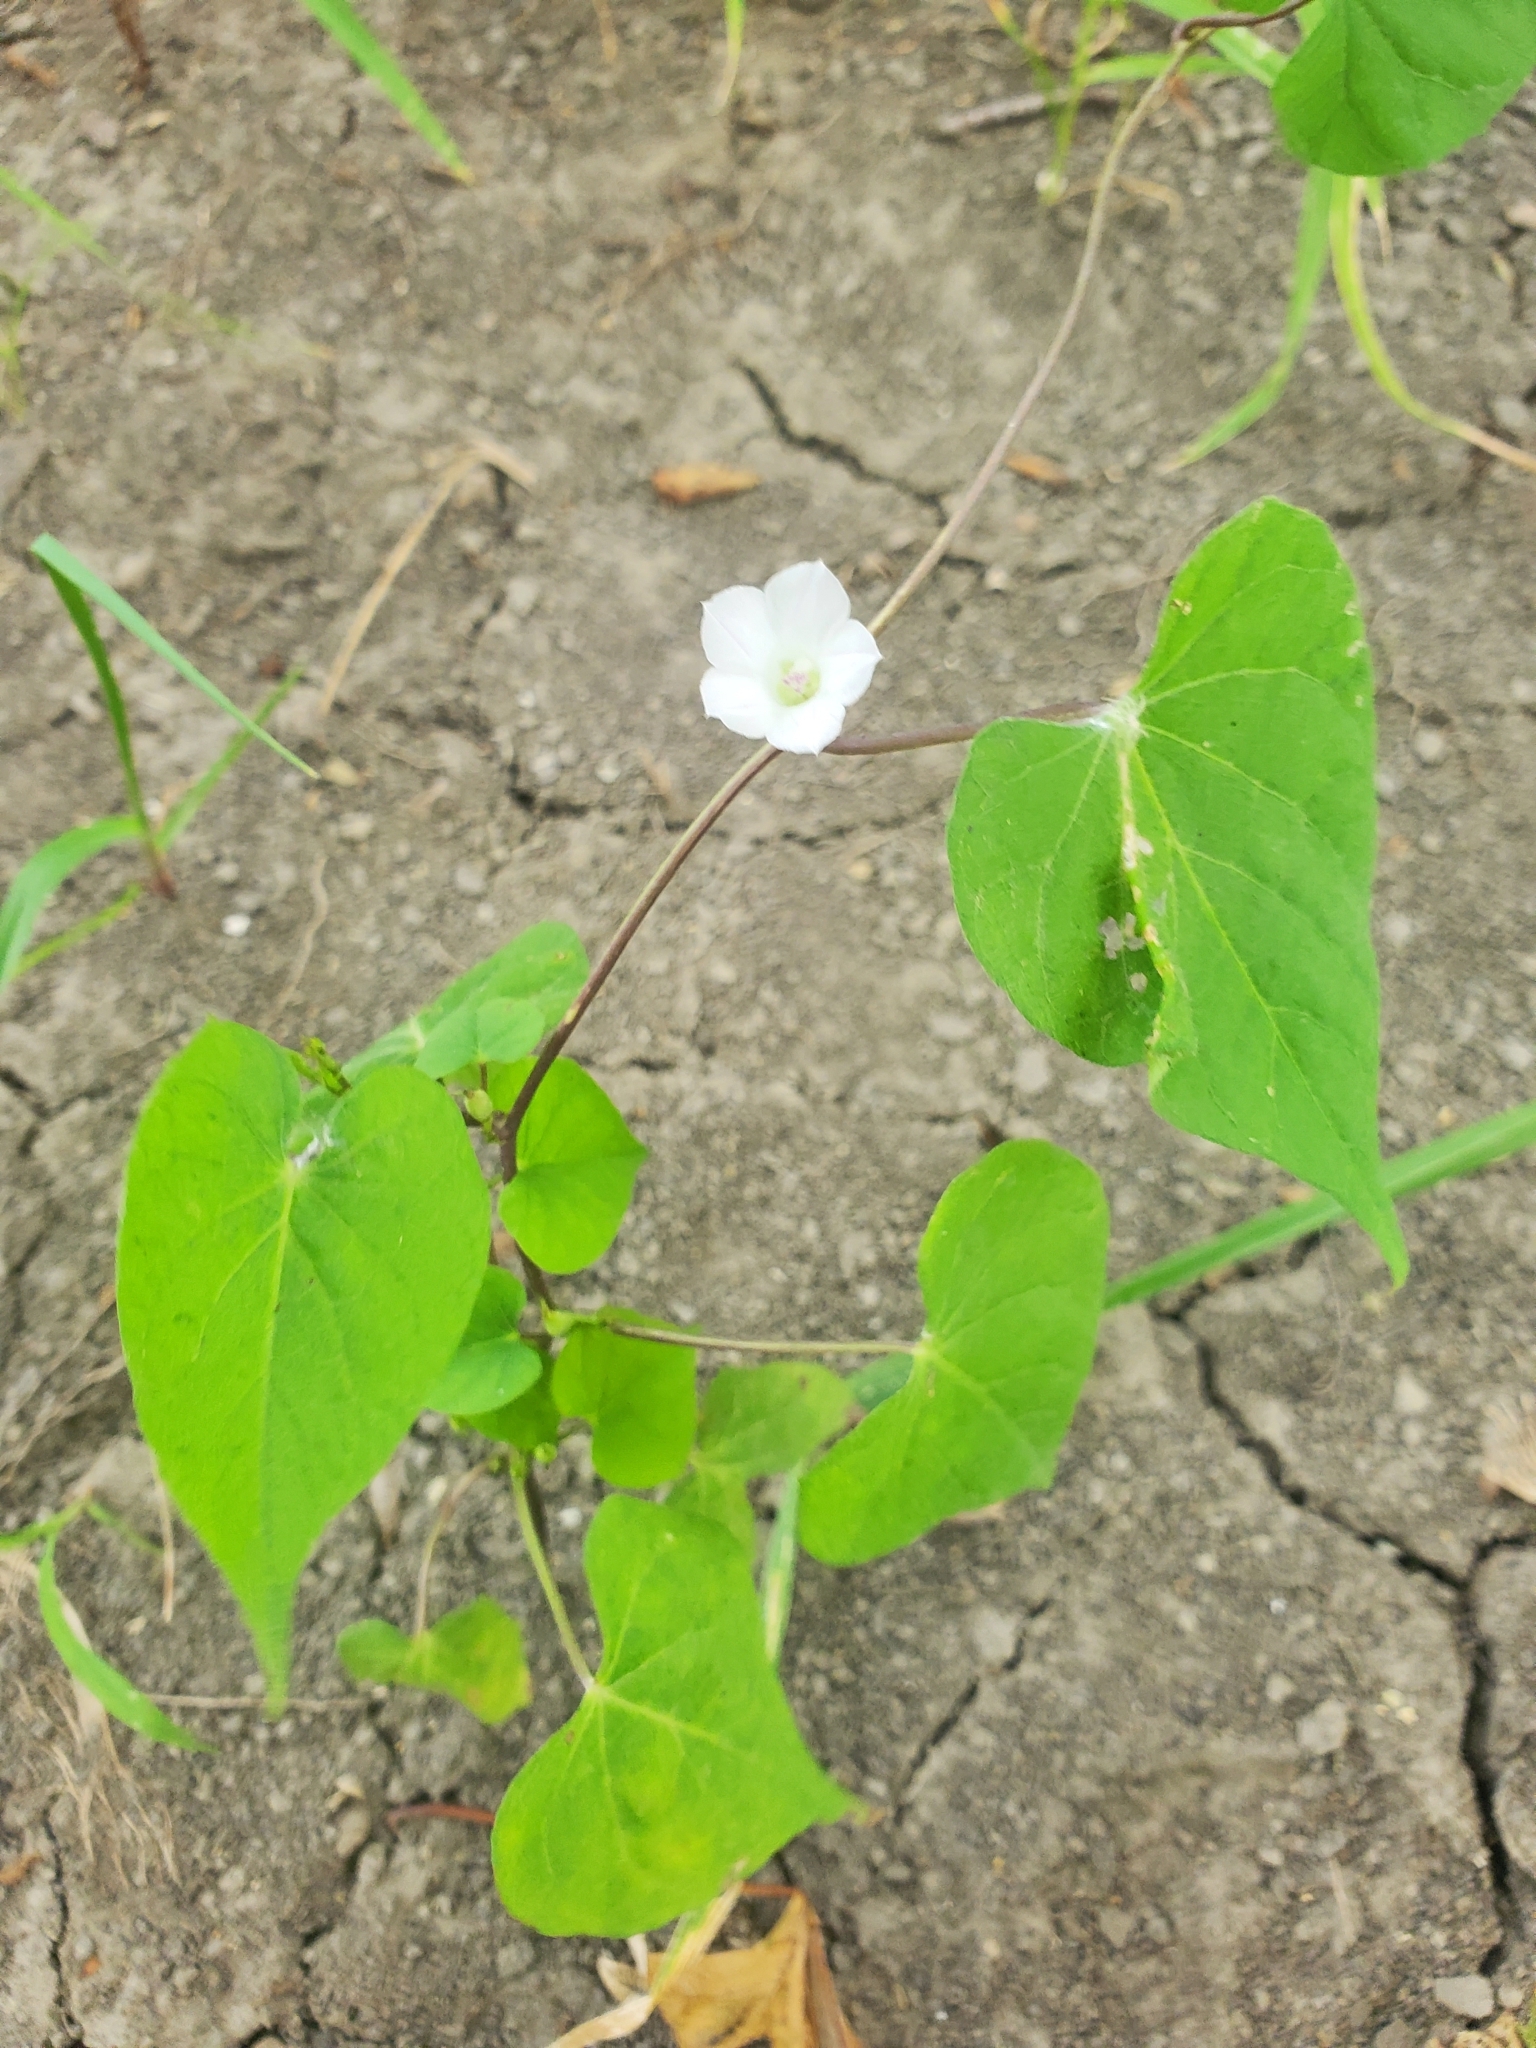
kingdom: Plantae
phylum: Tracheophyta
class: Magnoliopsida
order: Solanales
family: Convolvulaceae
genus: Ipomoea
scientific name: Ipomoea lacunosa
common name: White morning-glory
